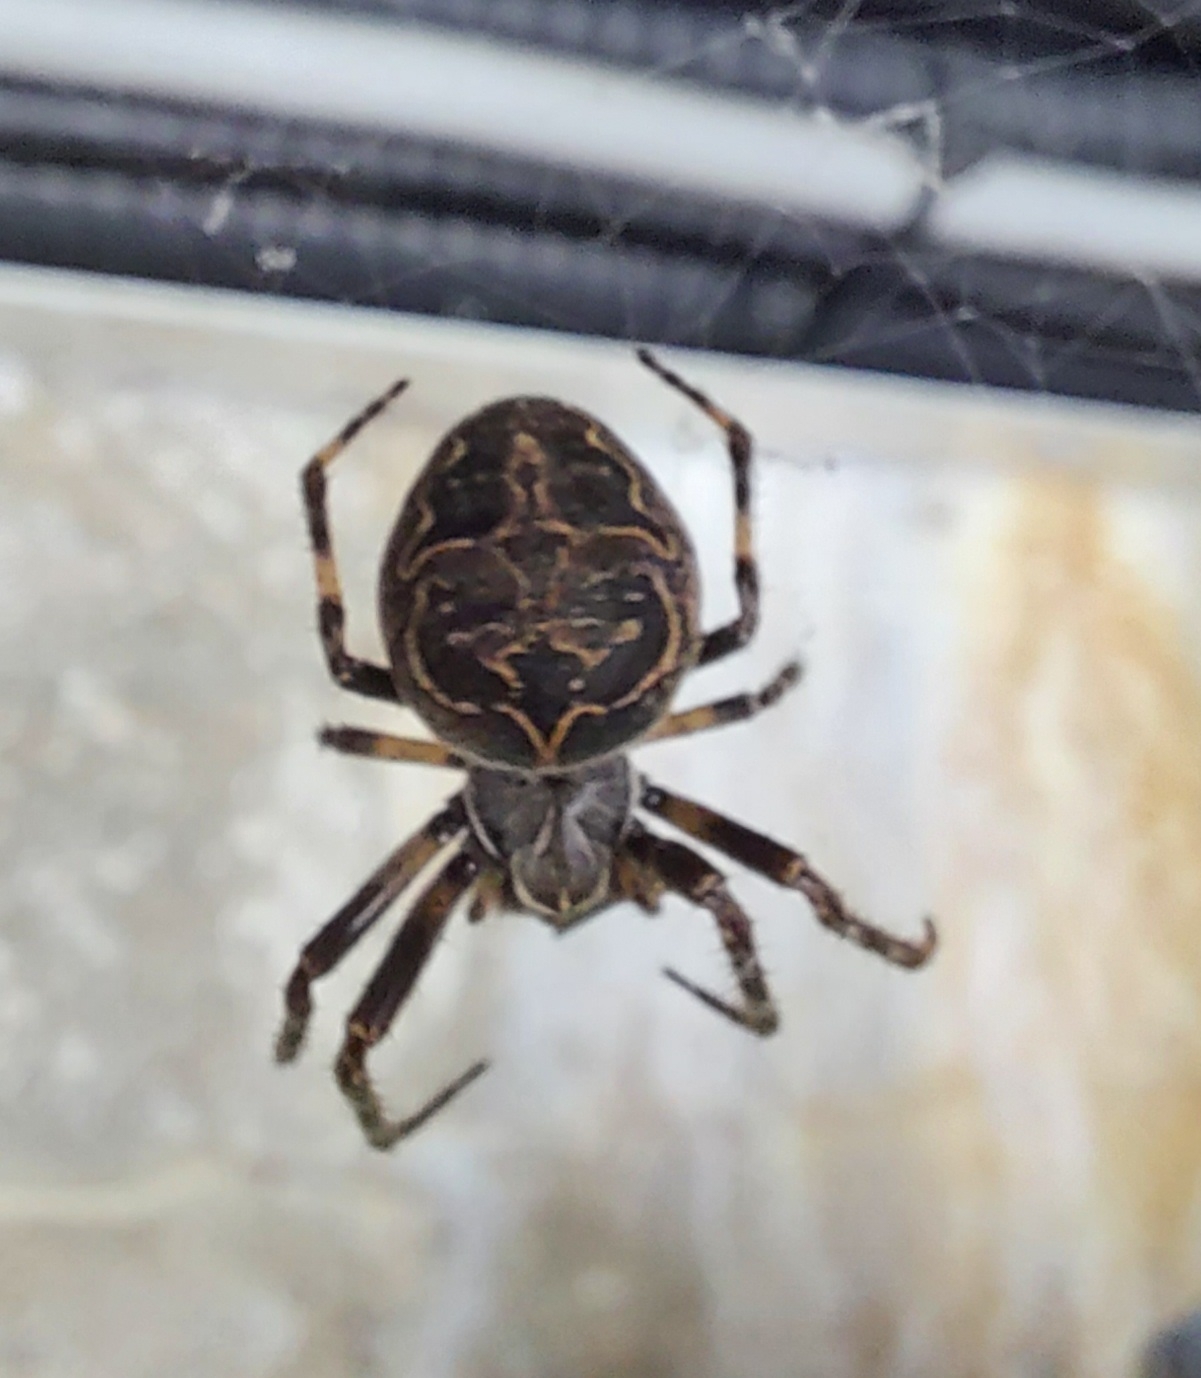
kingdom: Animalia
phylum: Arthropoda
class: Arachnida
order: Araneae
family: Araneidae
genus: Larinioides
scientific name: Larinioides sclopetarius
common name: Bridge orbweaver
